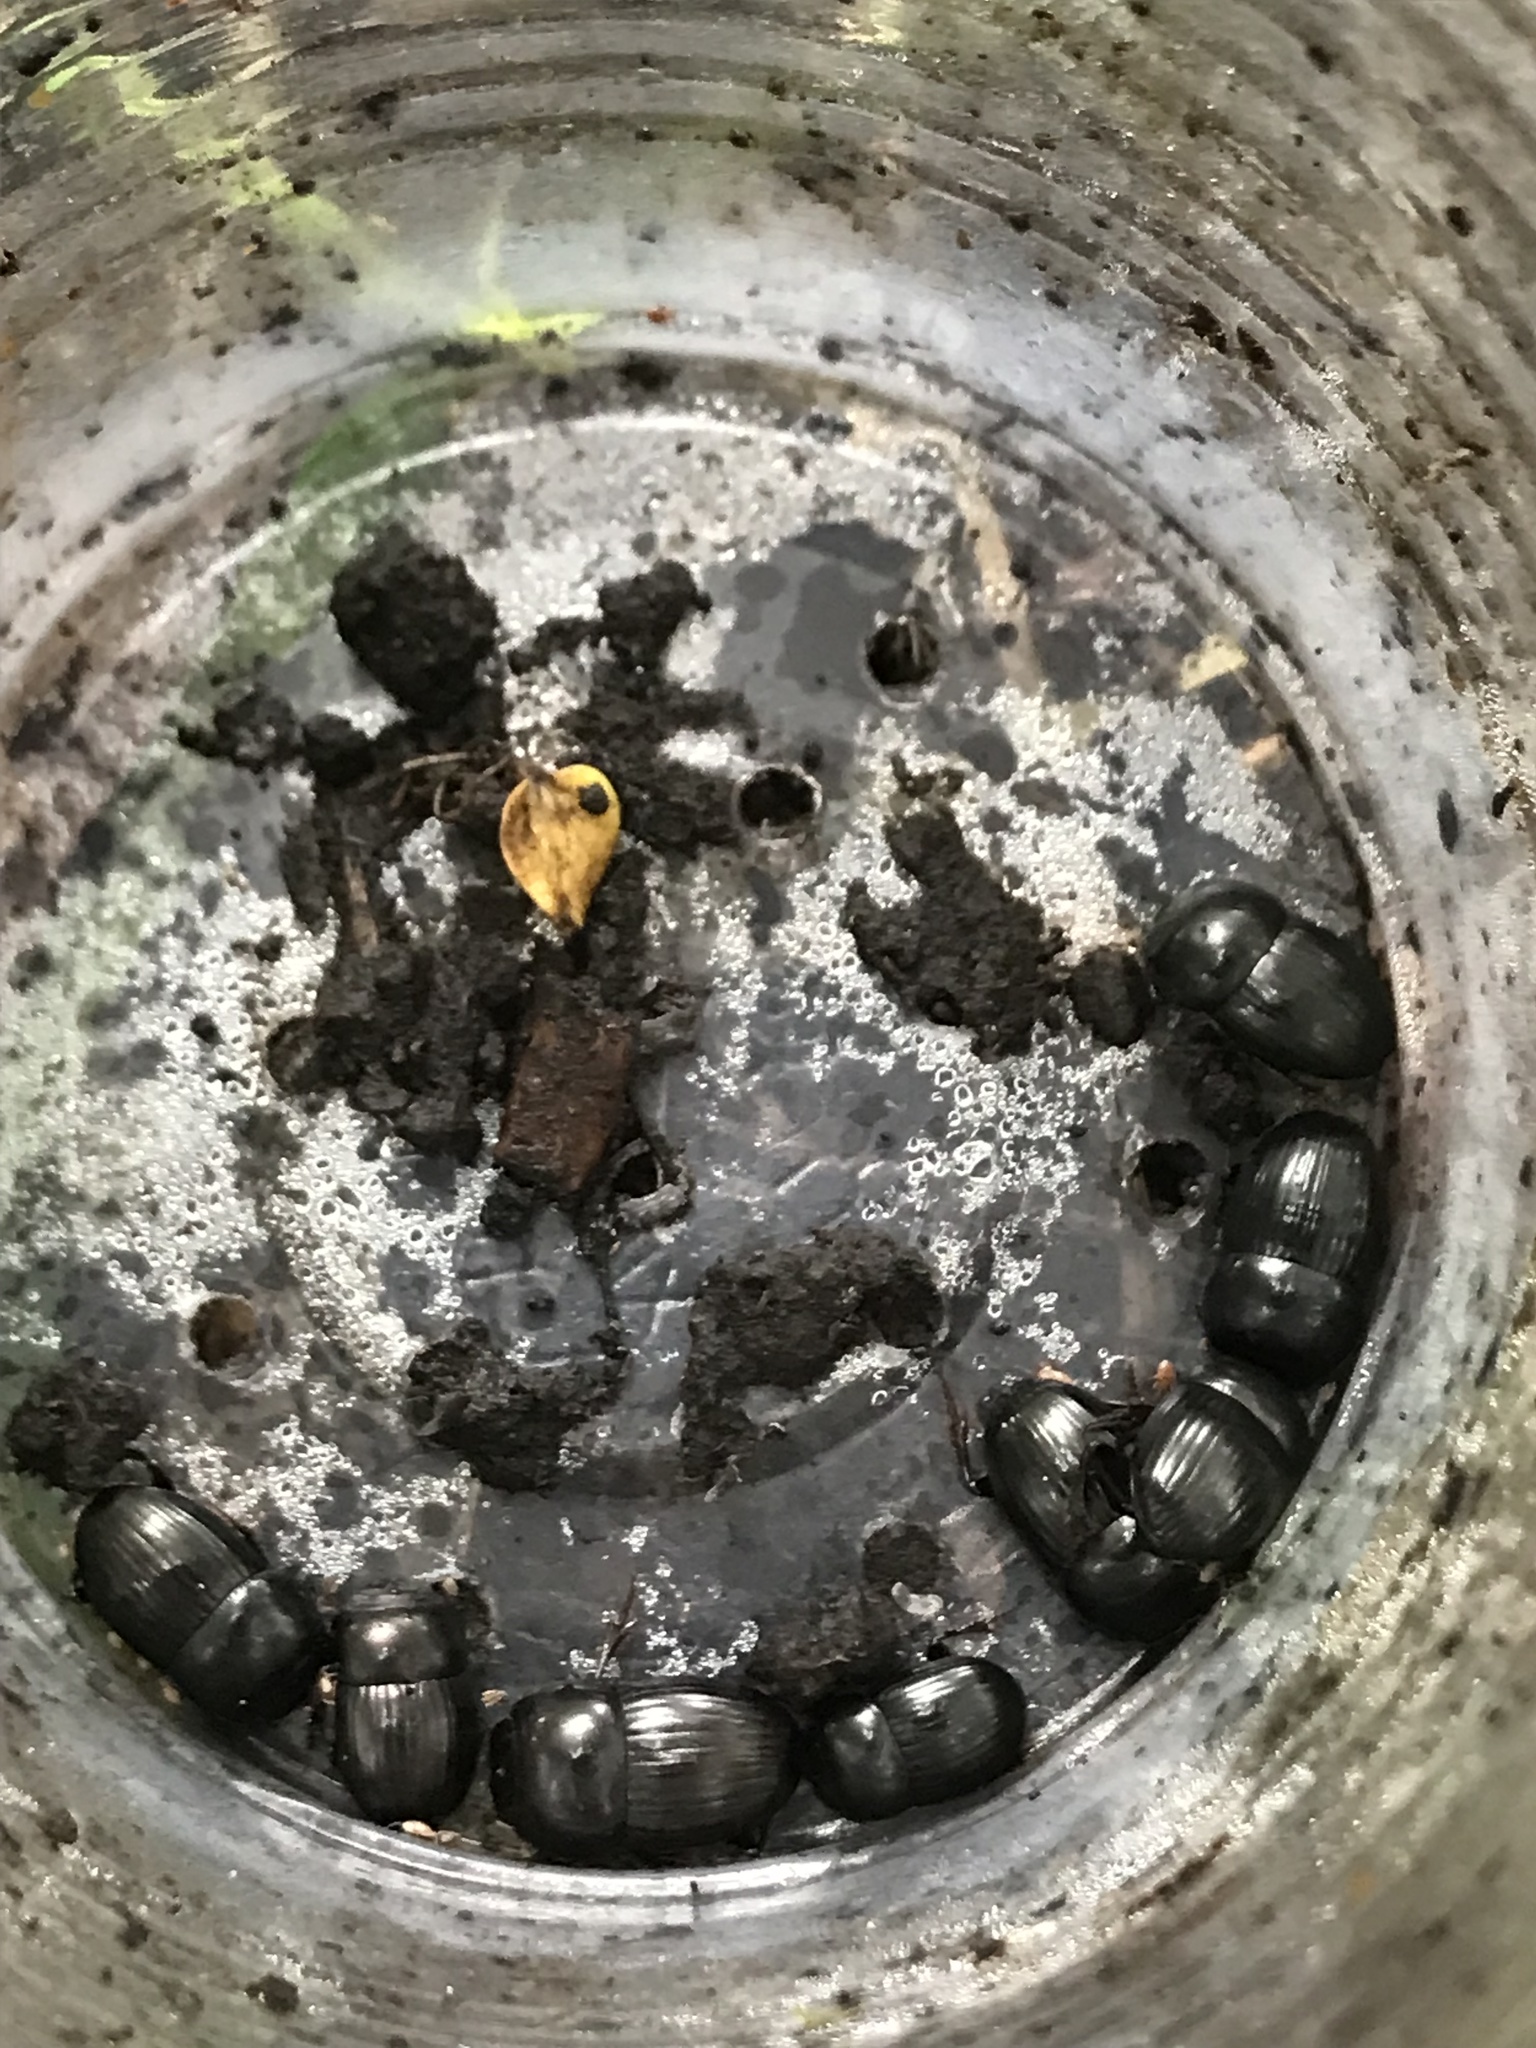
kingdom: Animalia
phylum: Arthropoda
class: Insecta
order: Coleoptera
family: Scarabaeidae
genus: Uroxys
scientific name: Uroxys coarctatus
